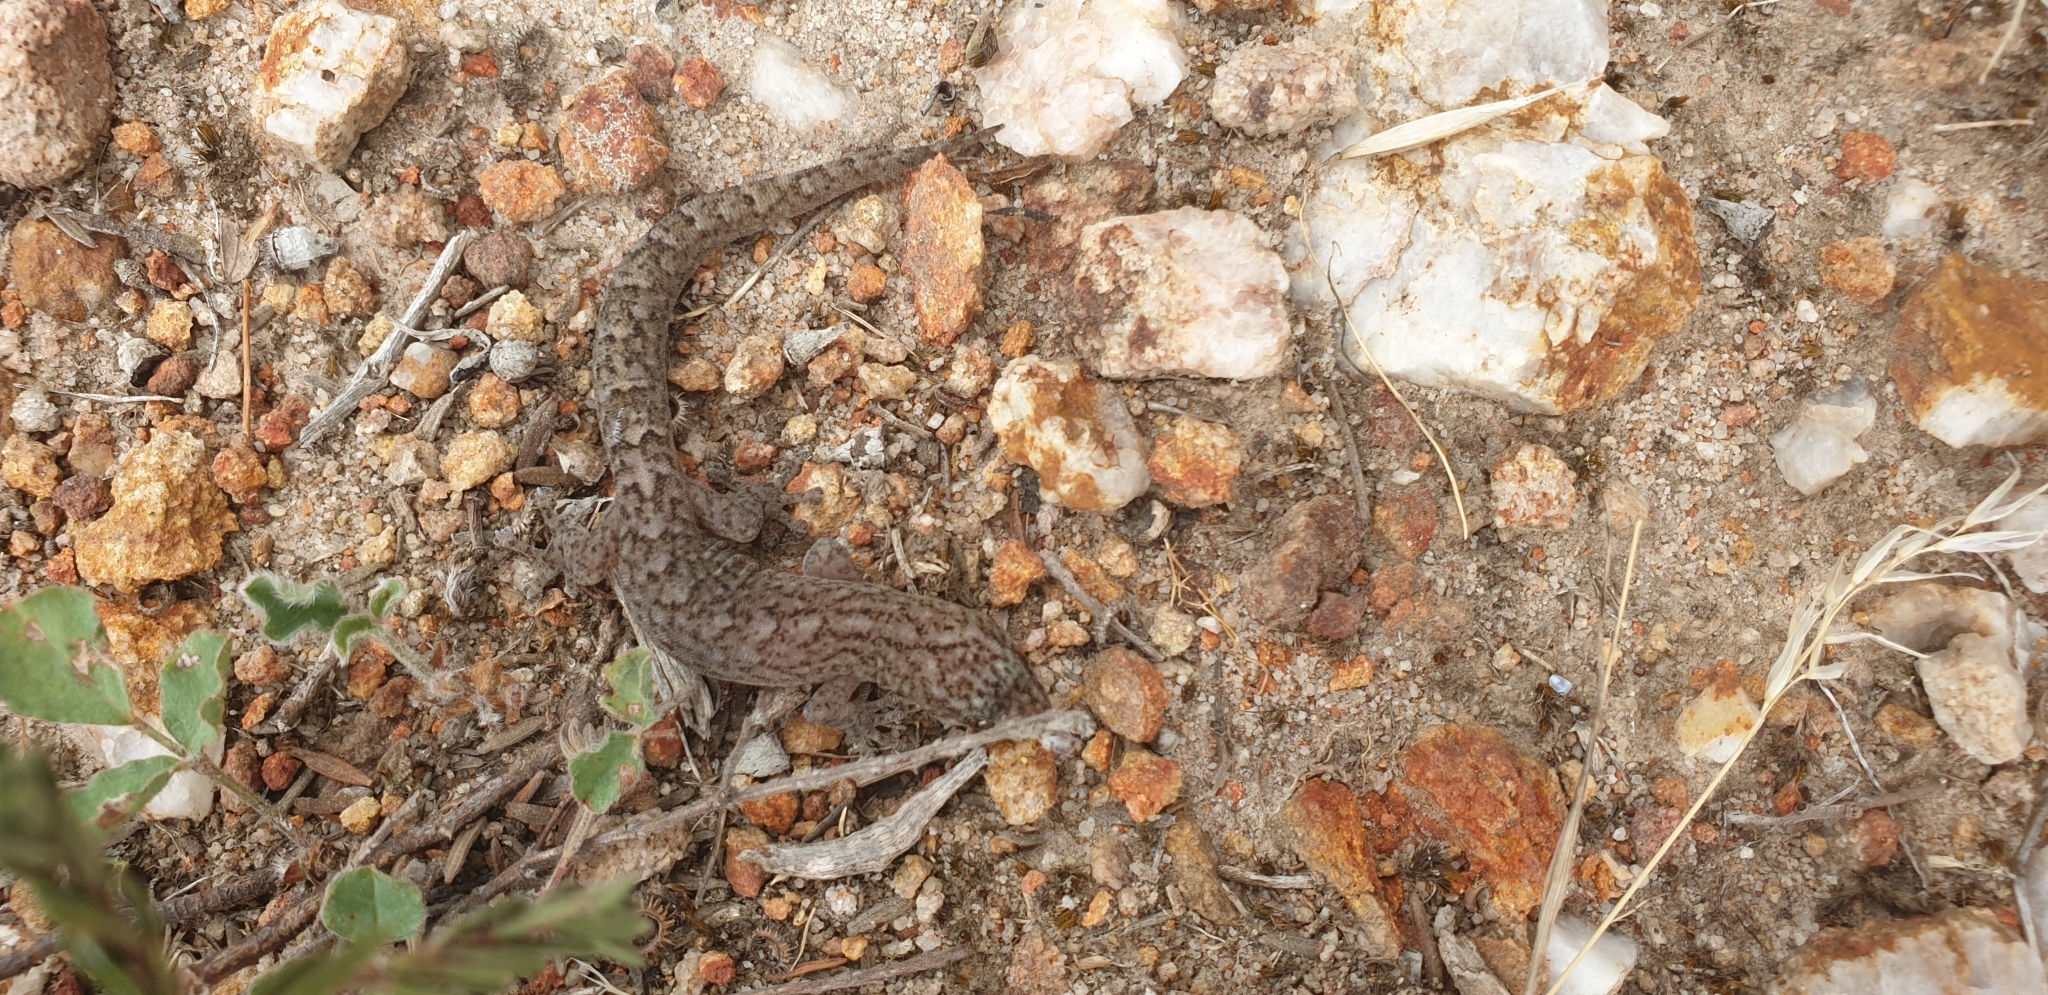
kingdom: Animalia
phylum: Chordata
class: Squamata
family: Gekkonidae
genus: Christinus
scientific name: Christinus marmoratus
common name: Marbled gecko
